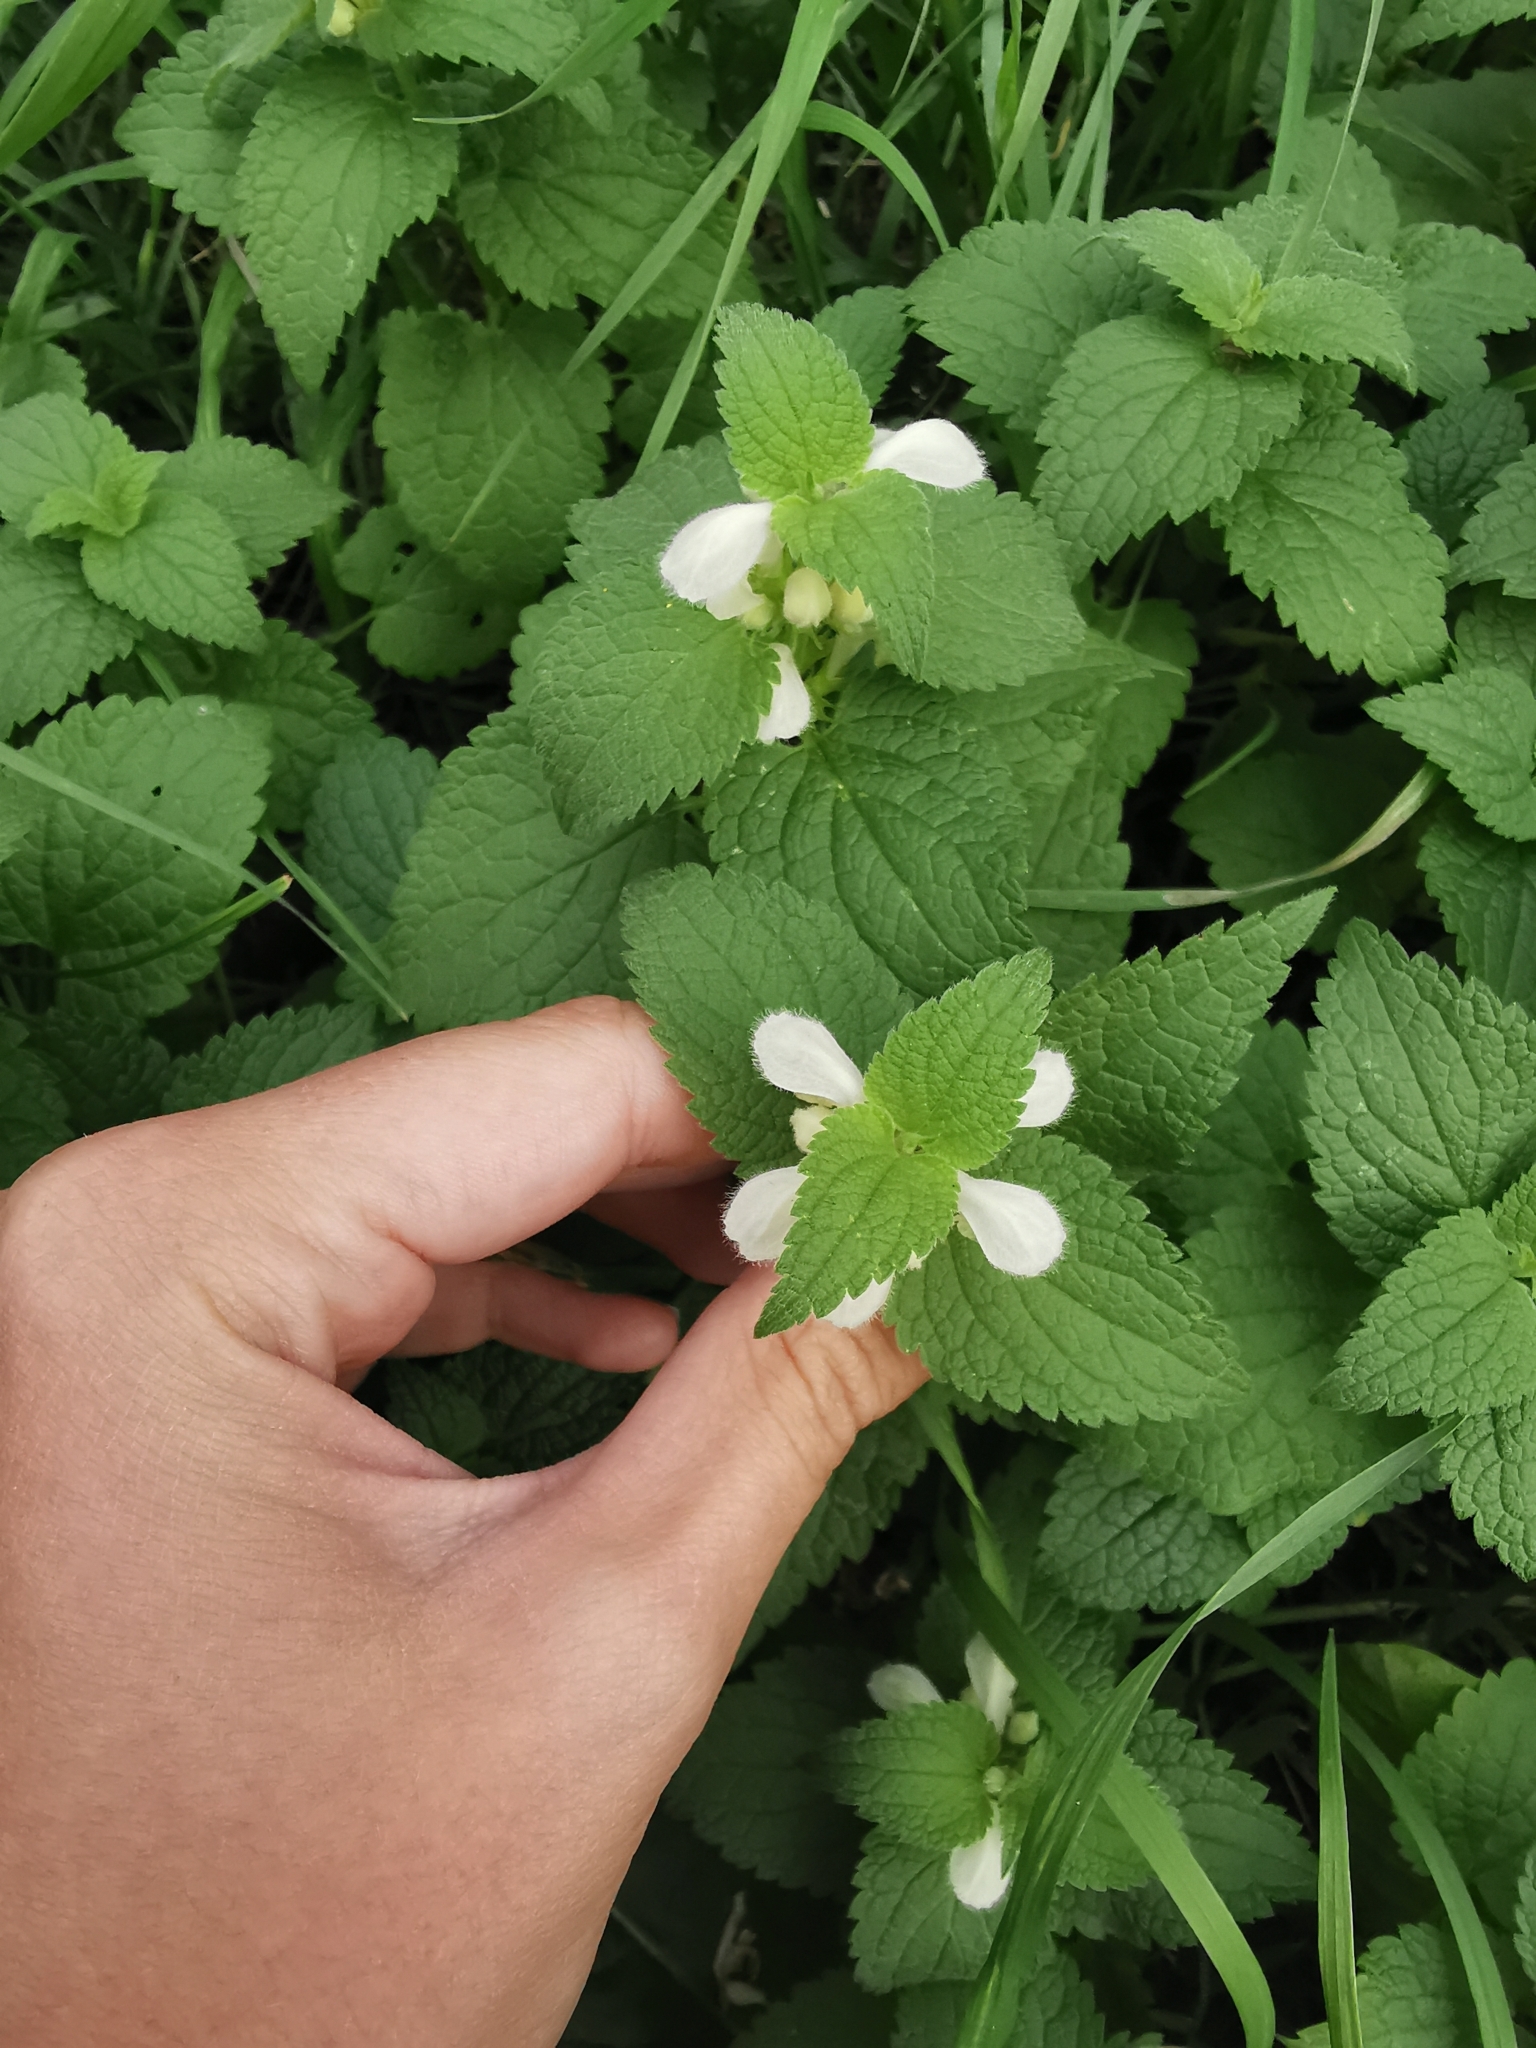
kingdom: Plantae
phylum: Tracheophyta
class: Magnoliopsida
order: Lamiales
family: Lamiaceae
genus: Lamium
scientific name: Lamium album
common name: White dead-nettle
